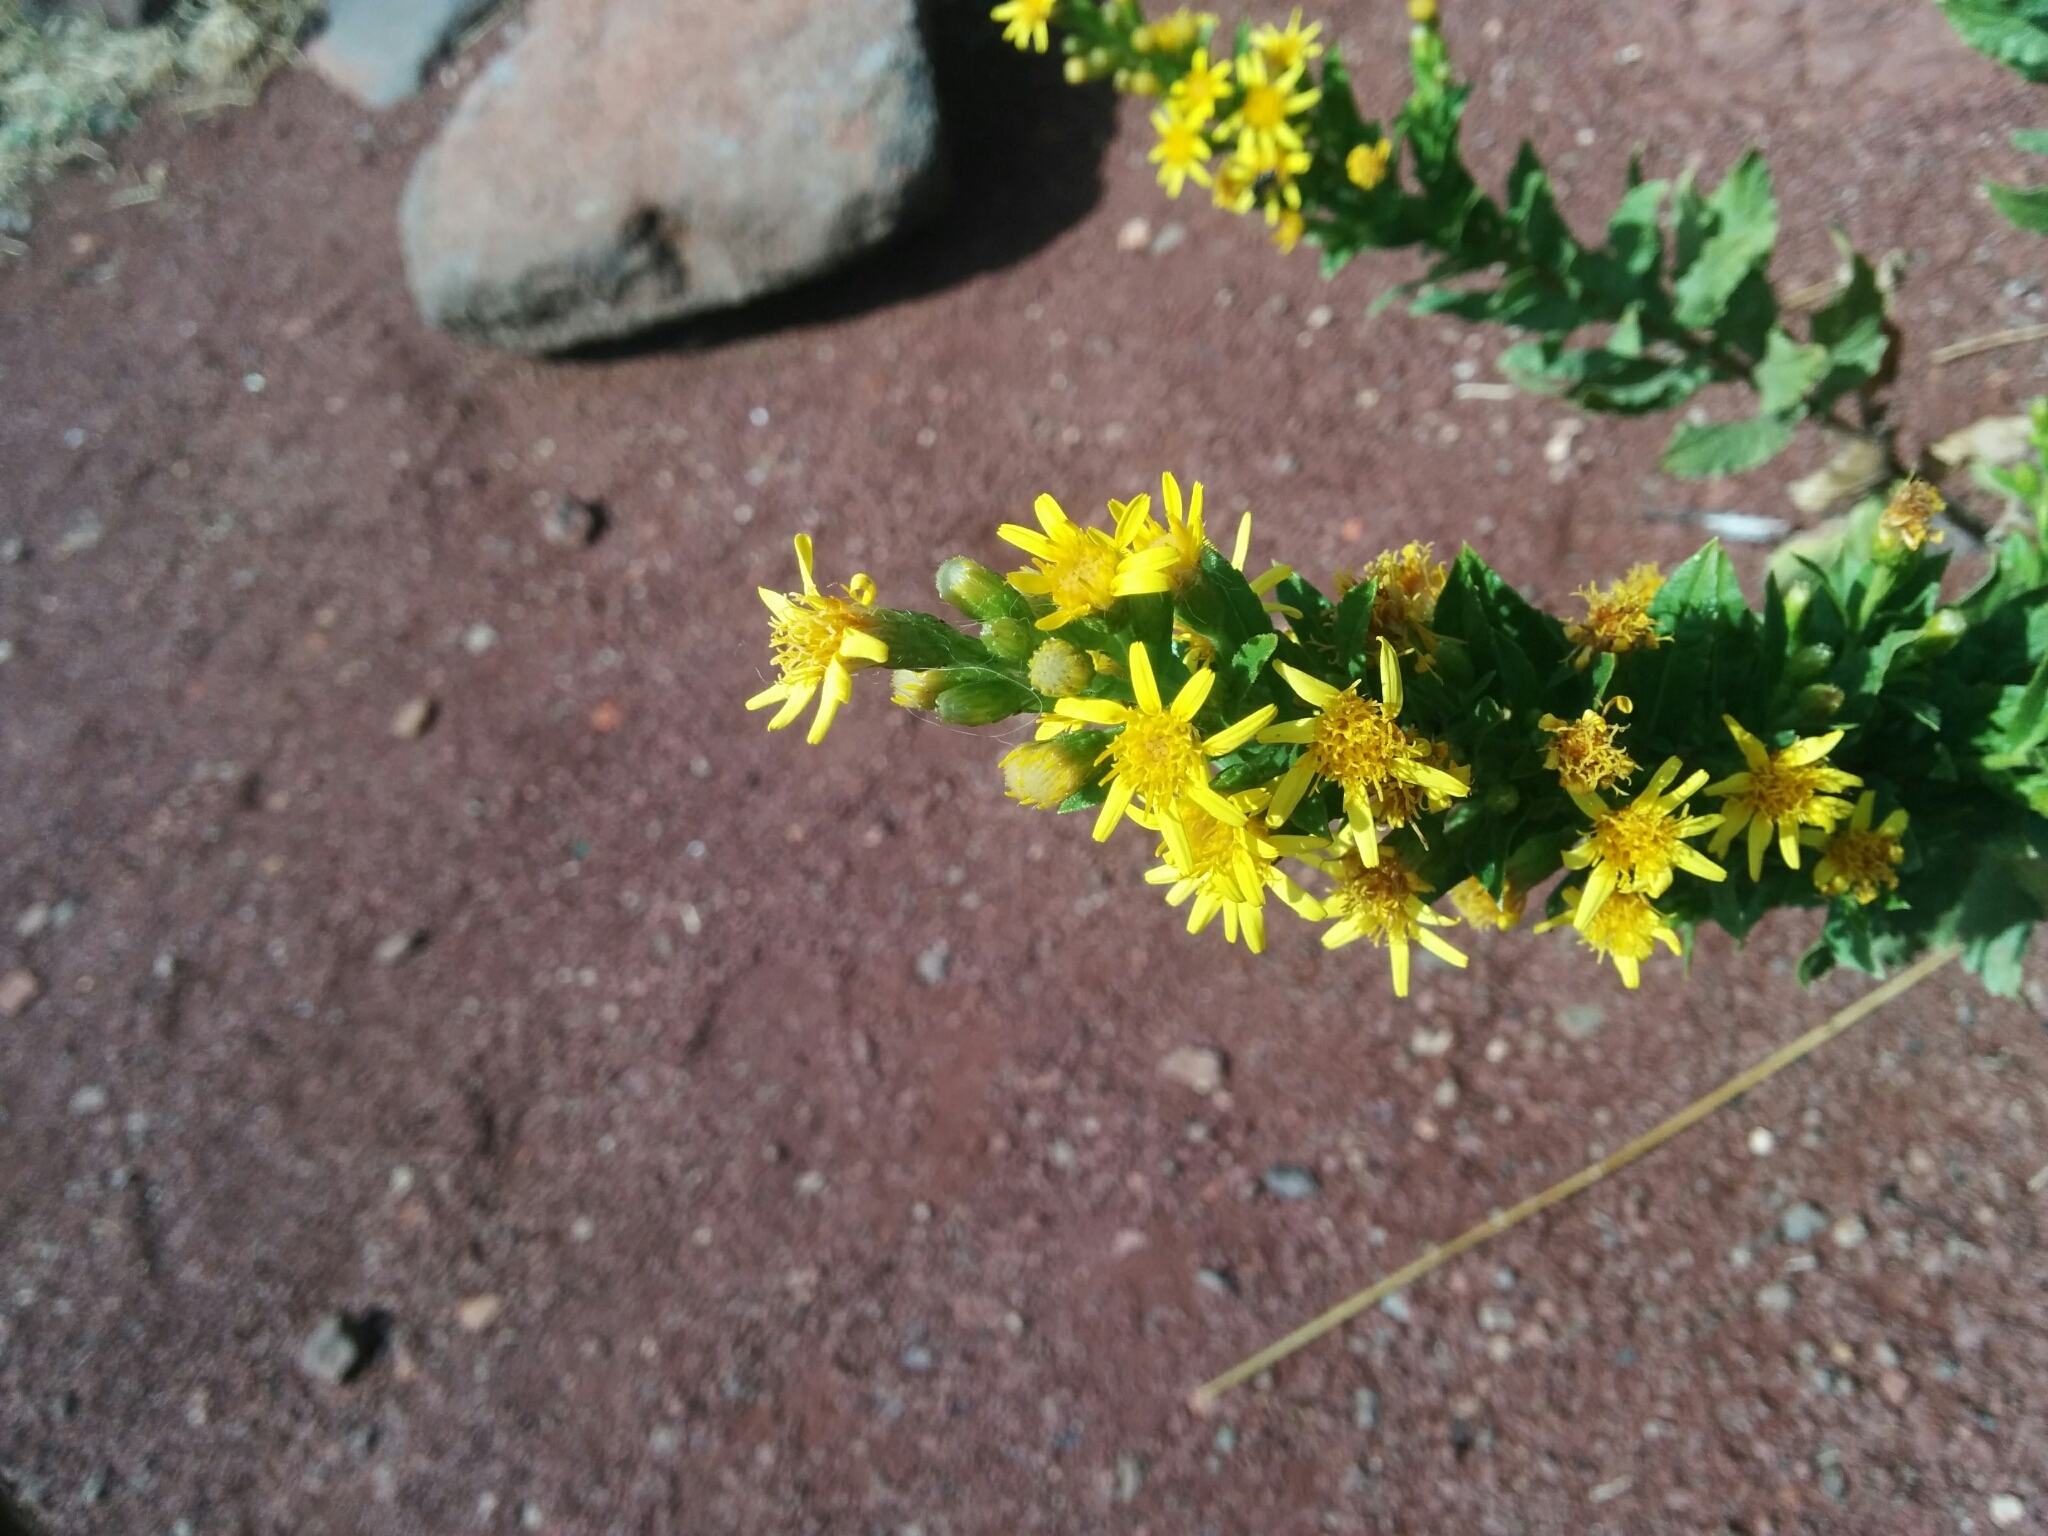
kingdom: Plantae
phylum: Tracheophyta
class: Magnoliopsida
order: Asterales
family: Asteraceae
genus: Dittrichia
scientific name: Dittrichia viscosa
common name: Woody fleabane
